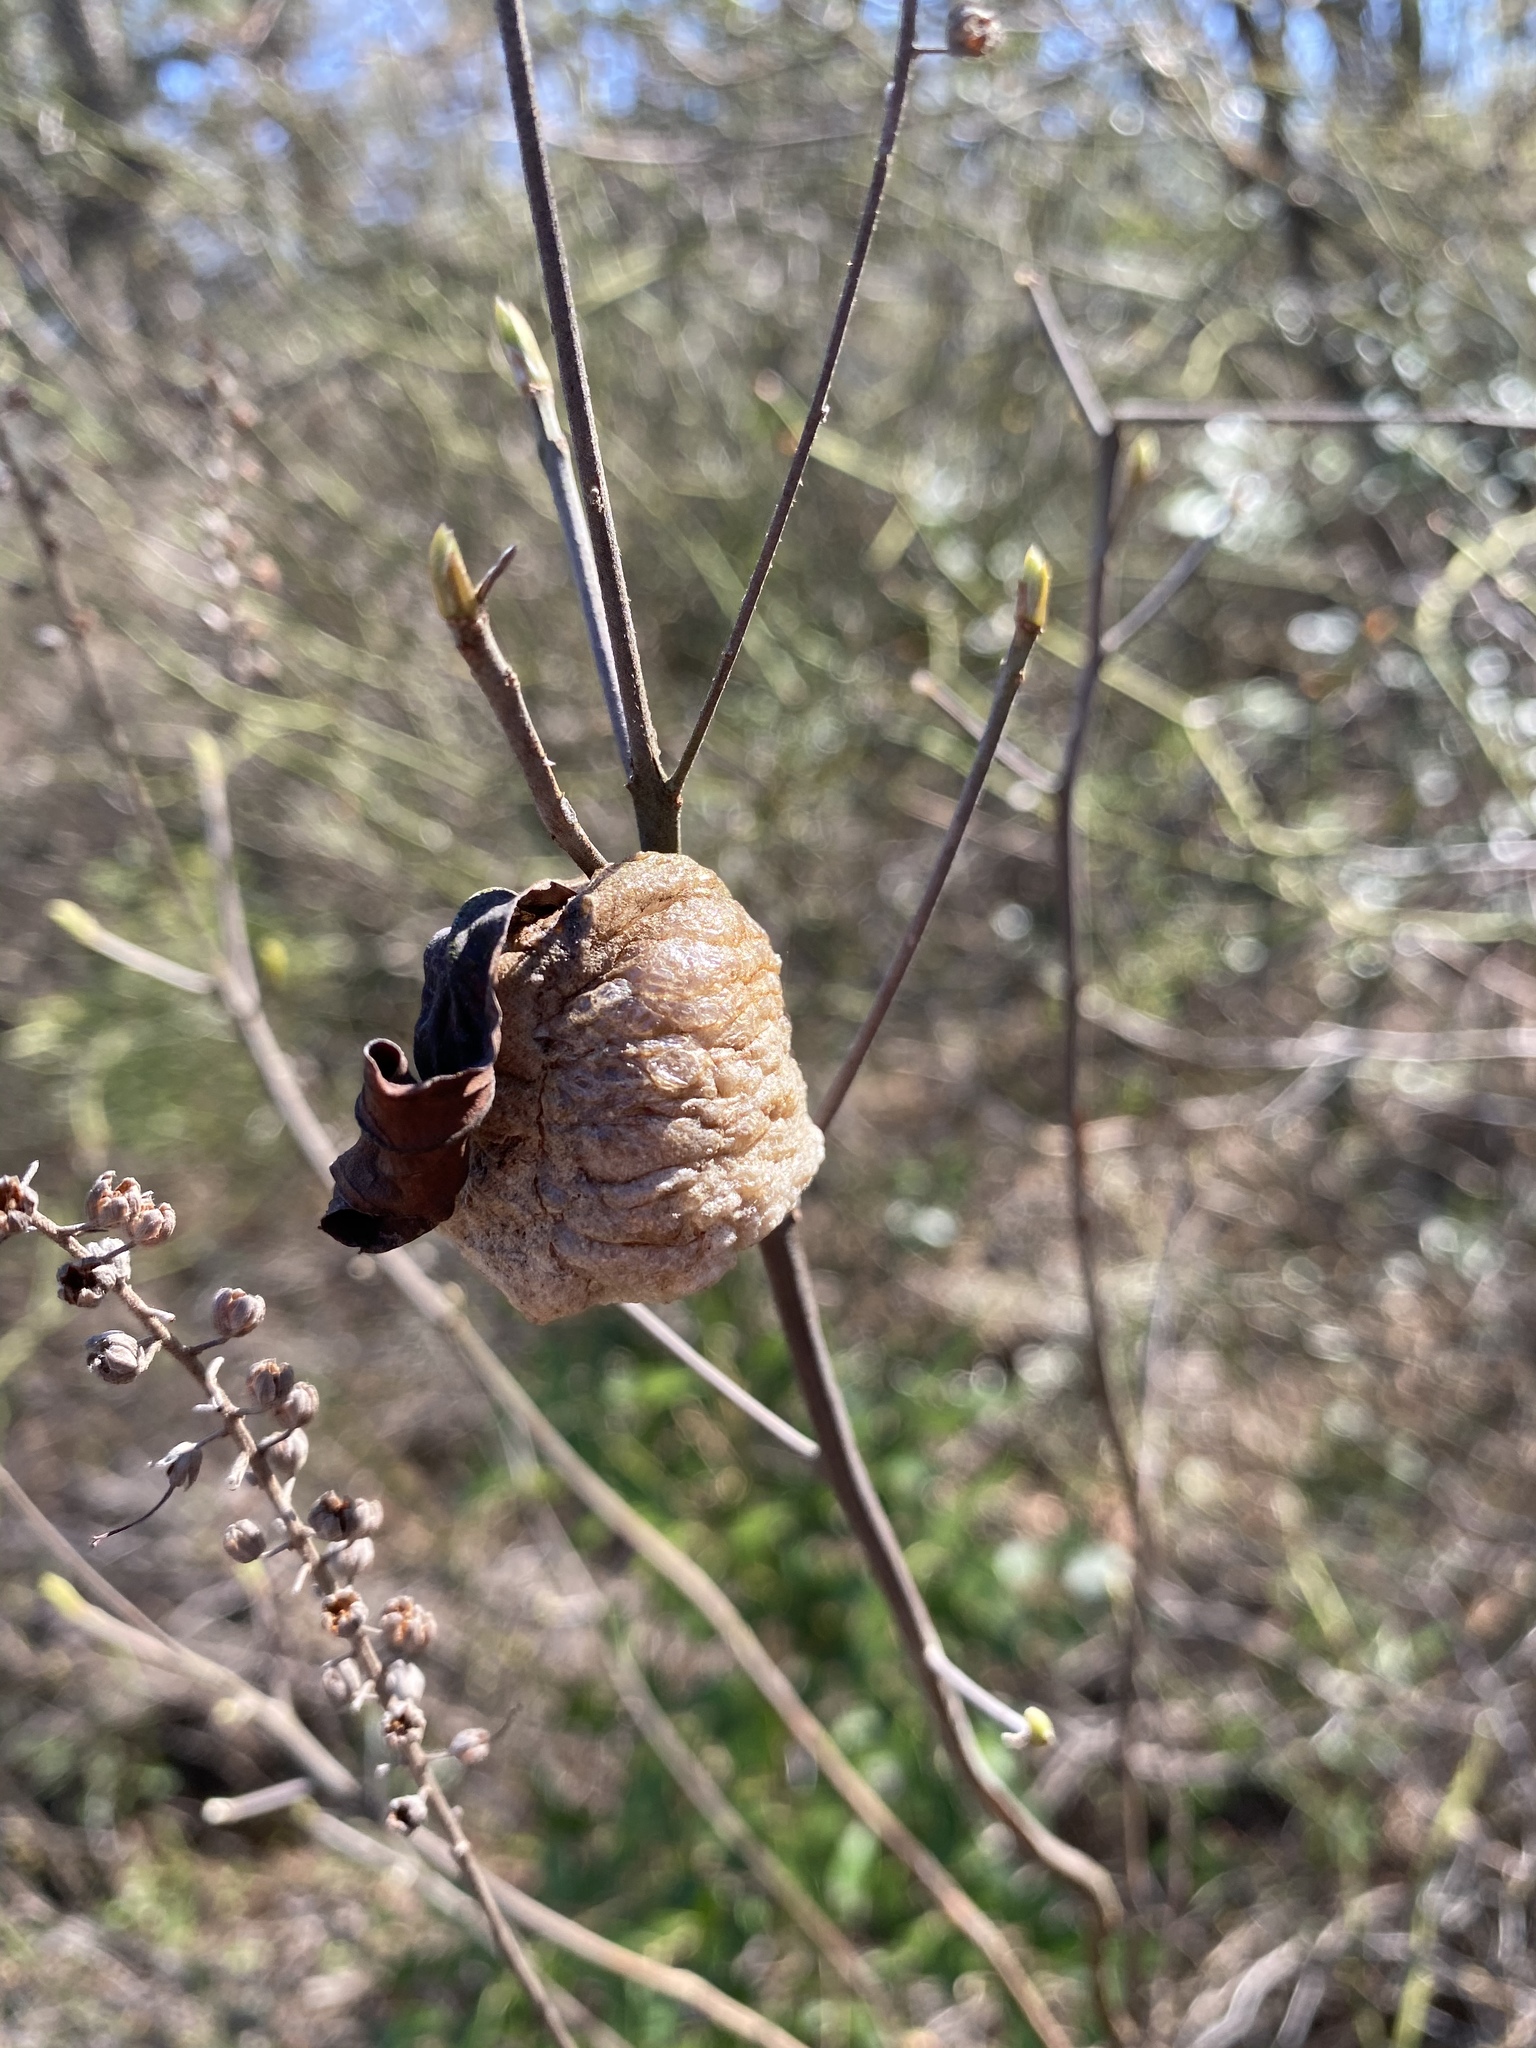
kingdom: Animalia
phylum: Arthropoda
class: Insecta
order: Mantodea
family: Mantidae
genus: Tenodera
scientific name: Tenodera sinensis
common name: Chinese mantis
